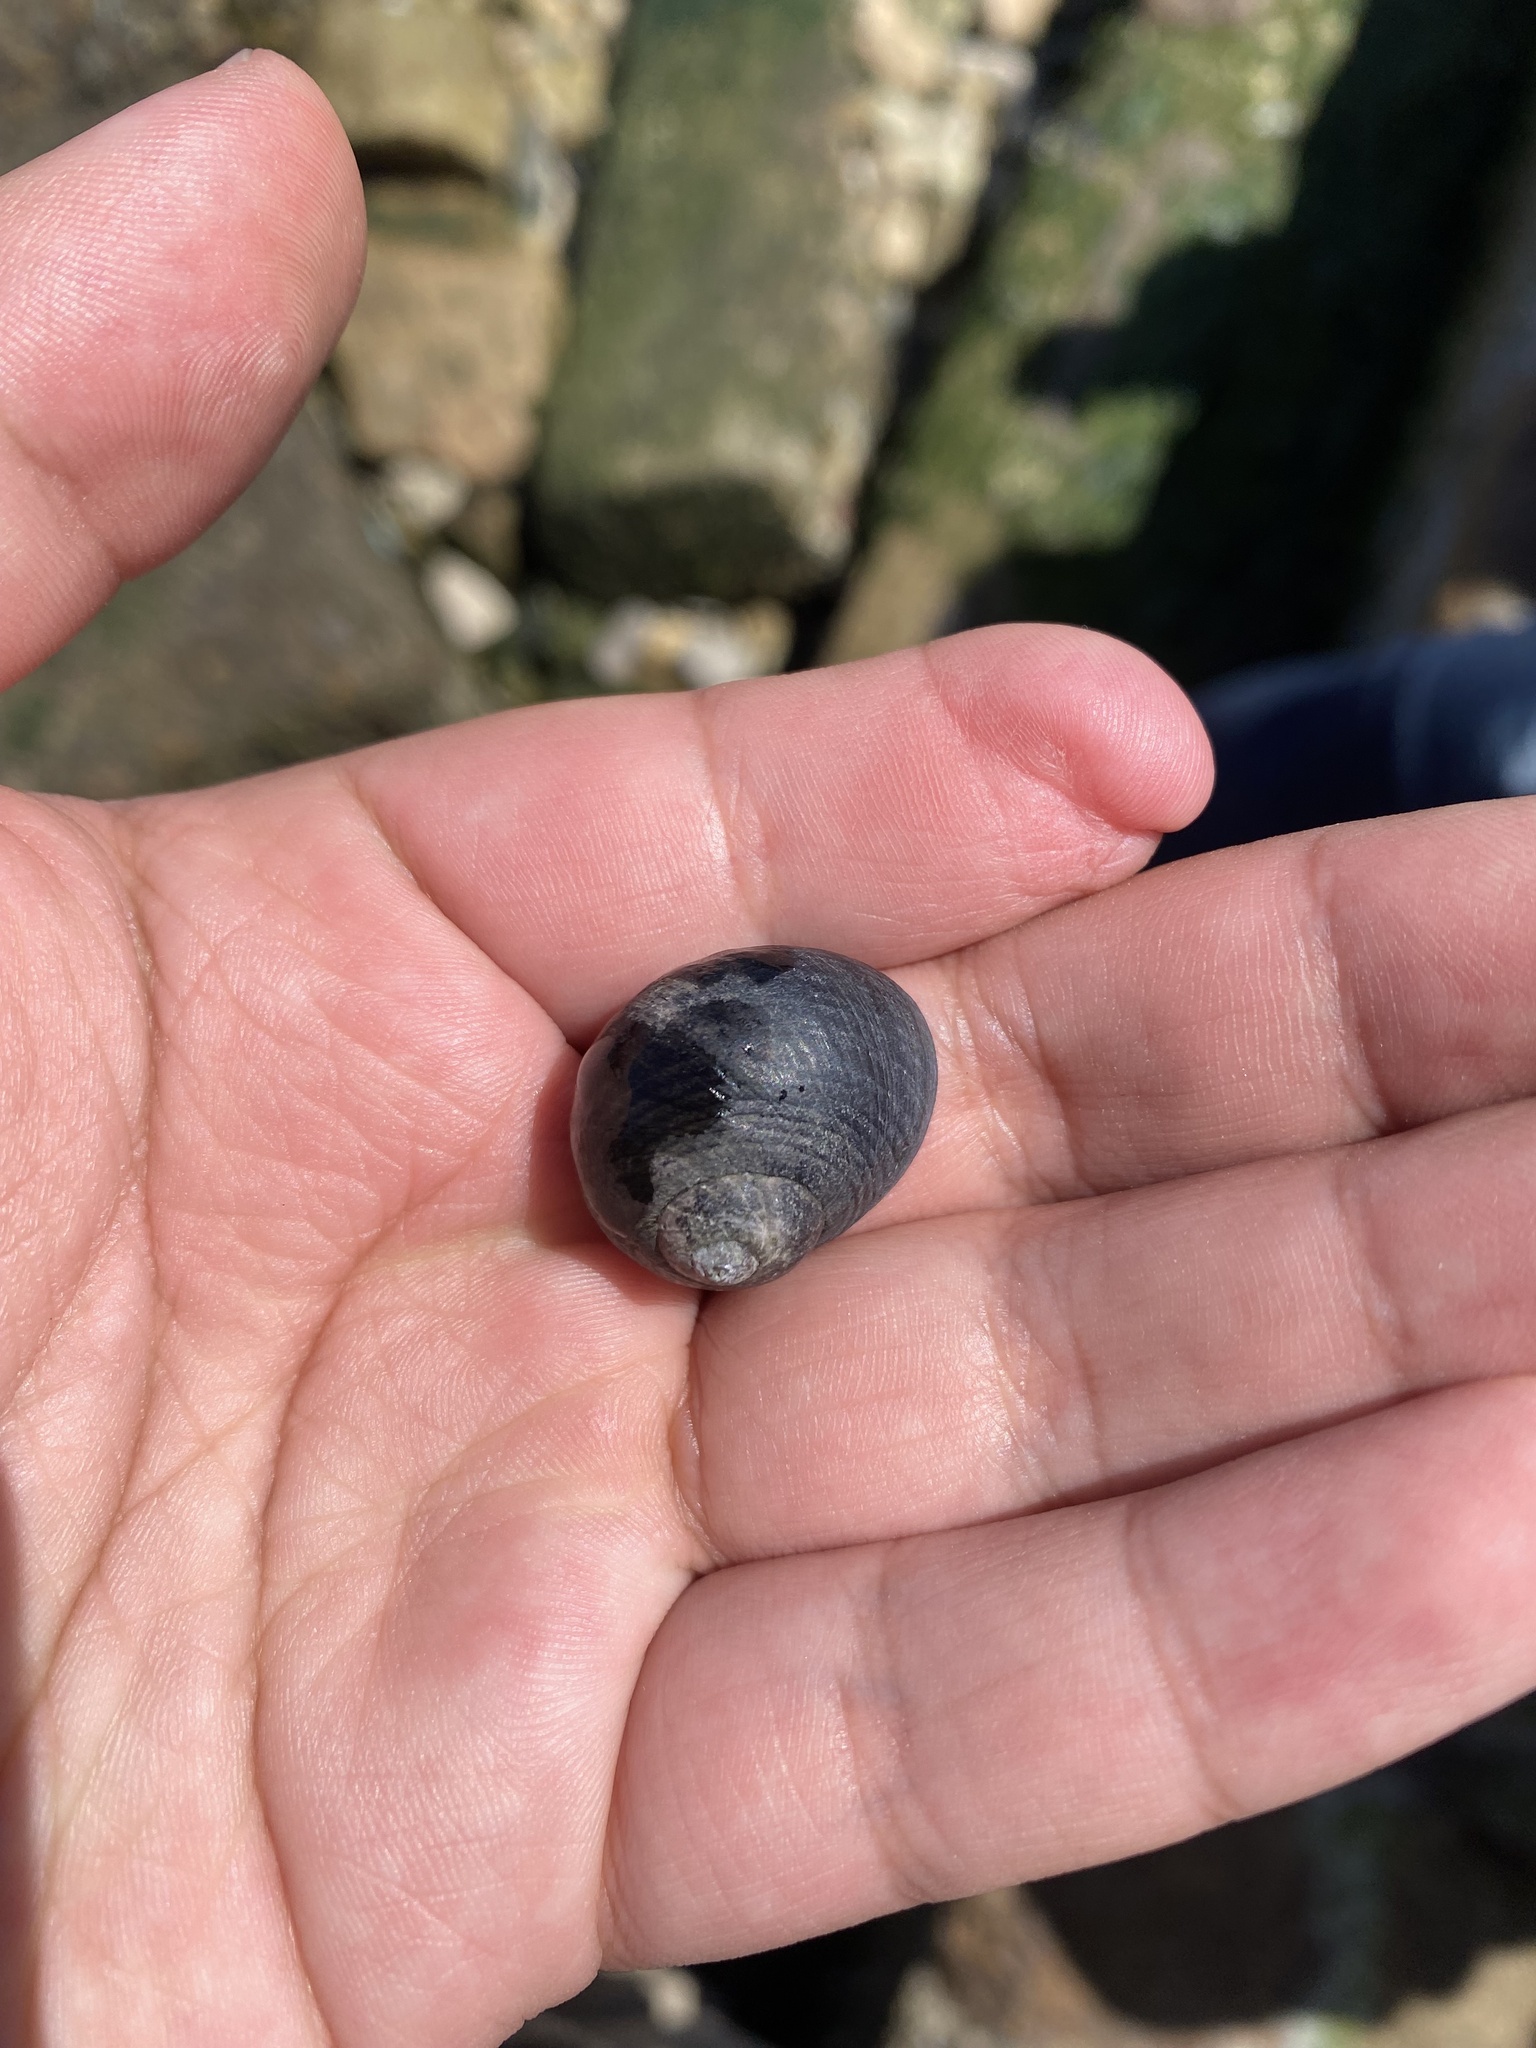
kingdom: Animalia
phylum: Mollusca
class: Gastropoda
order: Trochida
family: Turbinidae
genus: Prisogaster
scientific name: Prisogaster niger
